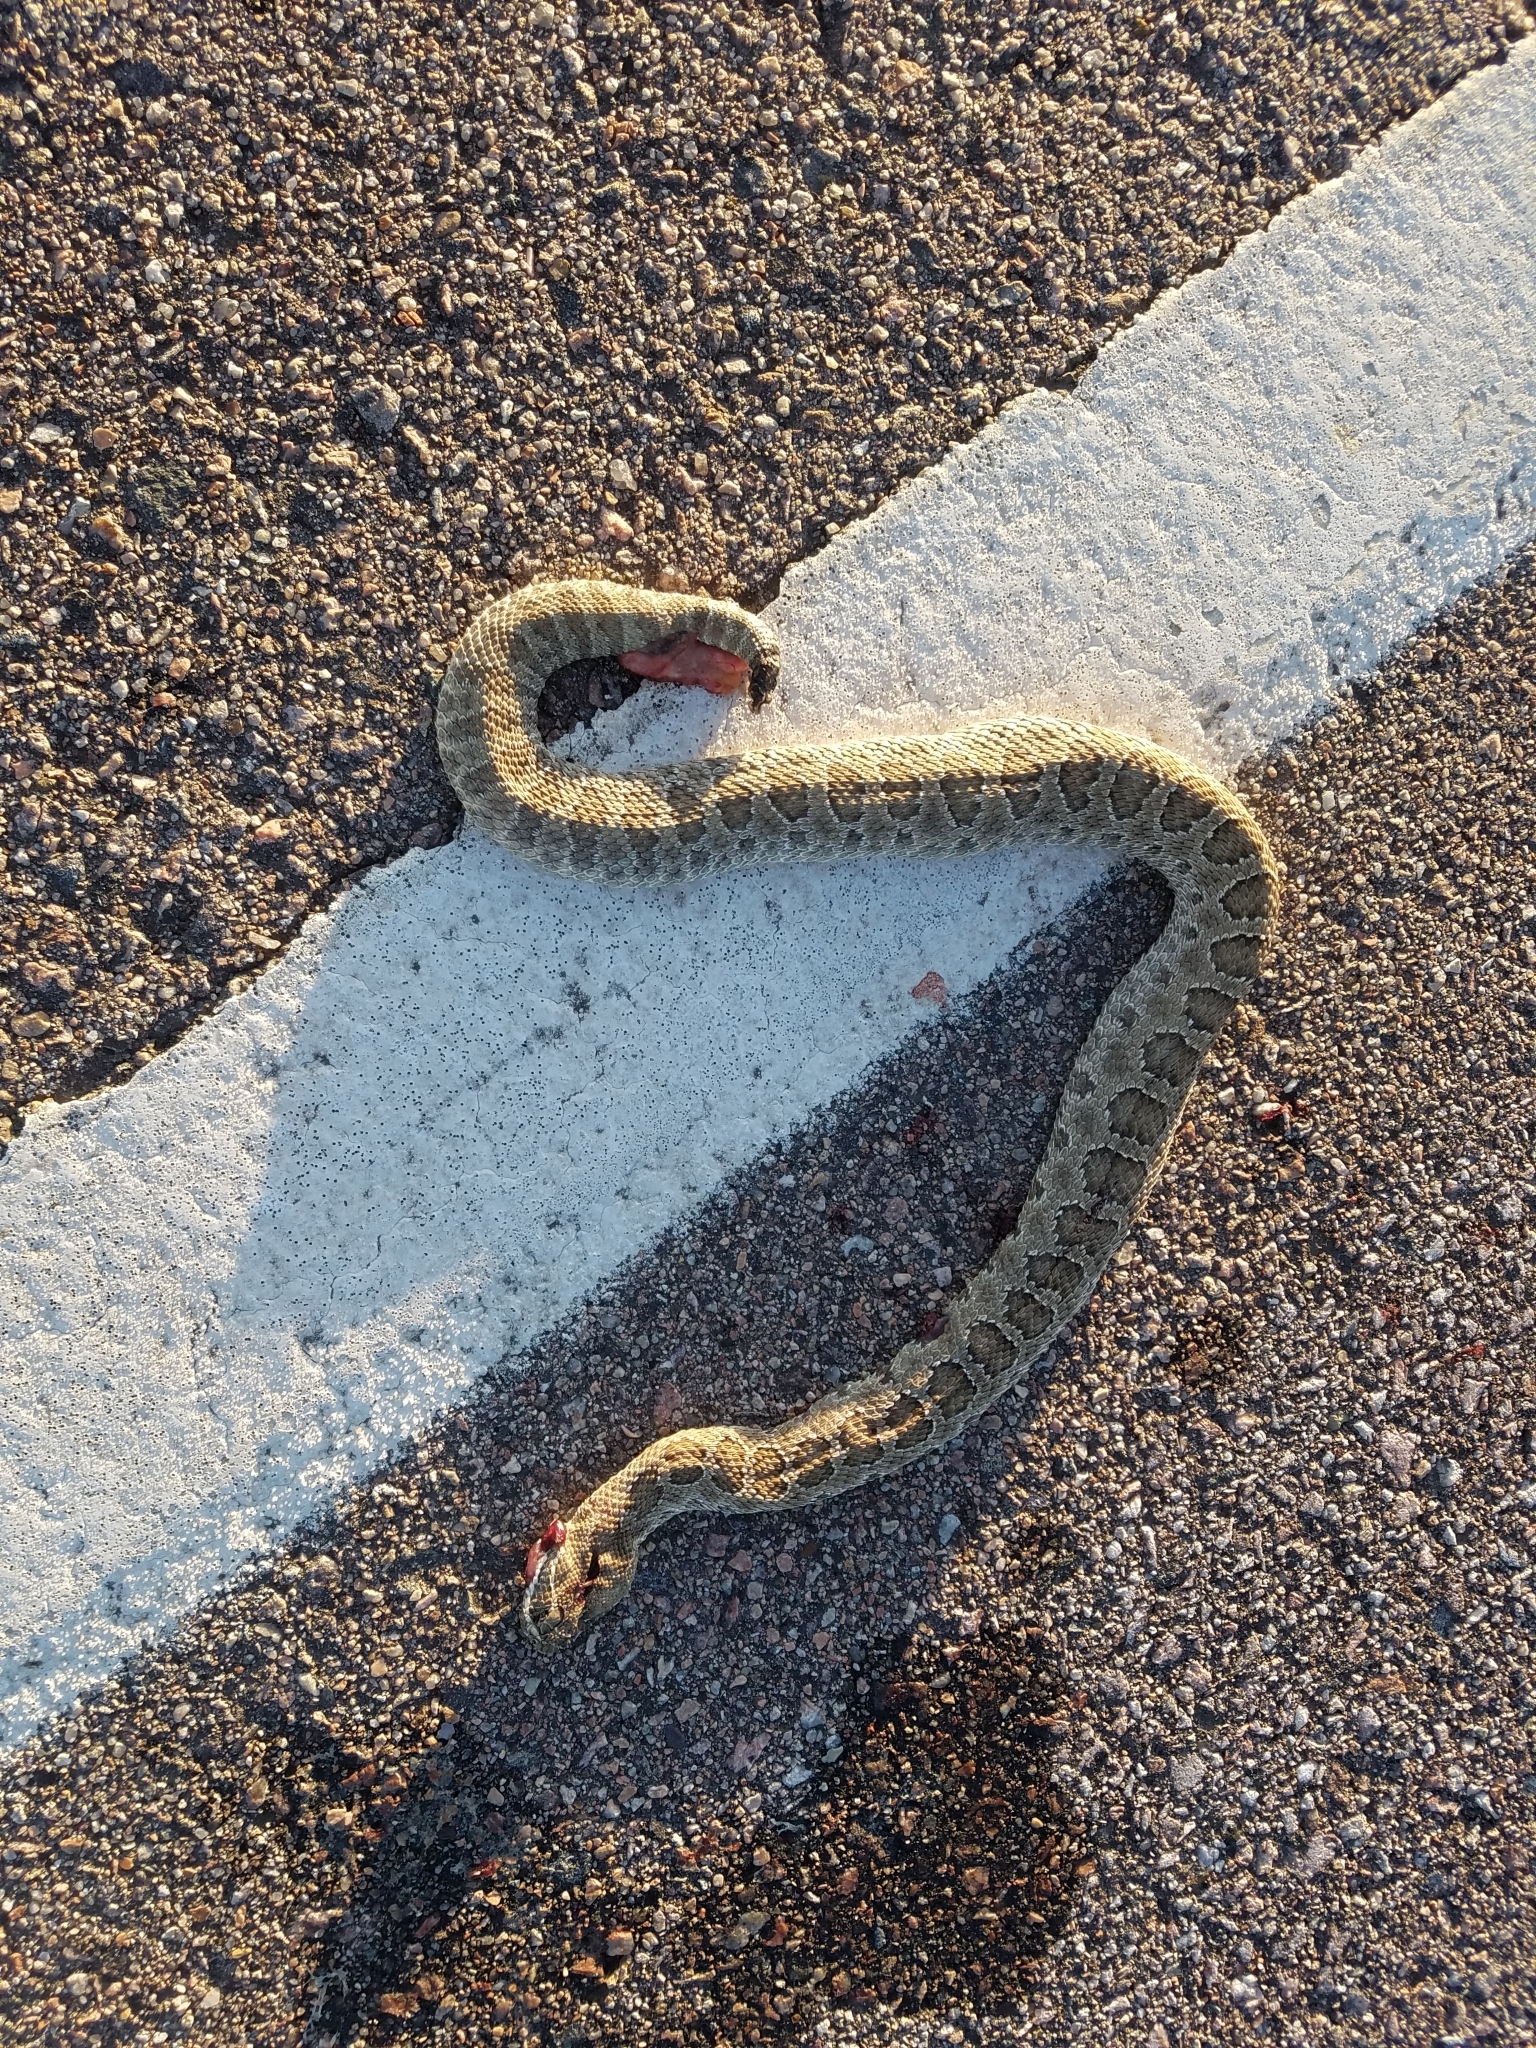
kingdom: Animalia
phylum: Chordata
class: Squamata
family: Viperidae
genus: Crotalus
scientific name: Crotalus viridis
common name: Prairie rattlesnake
